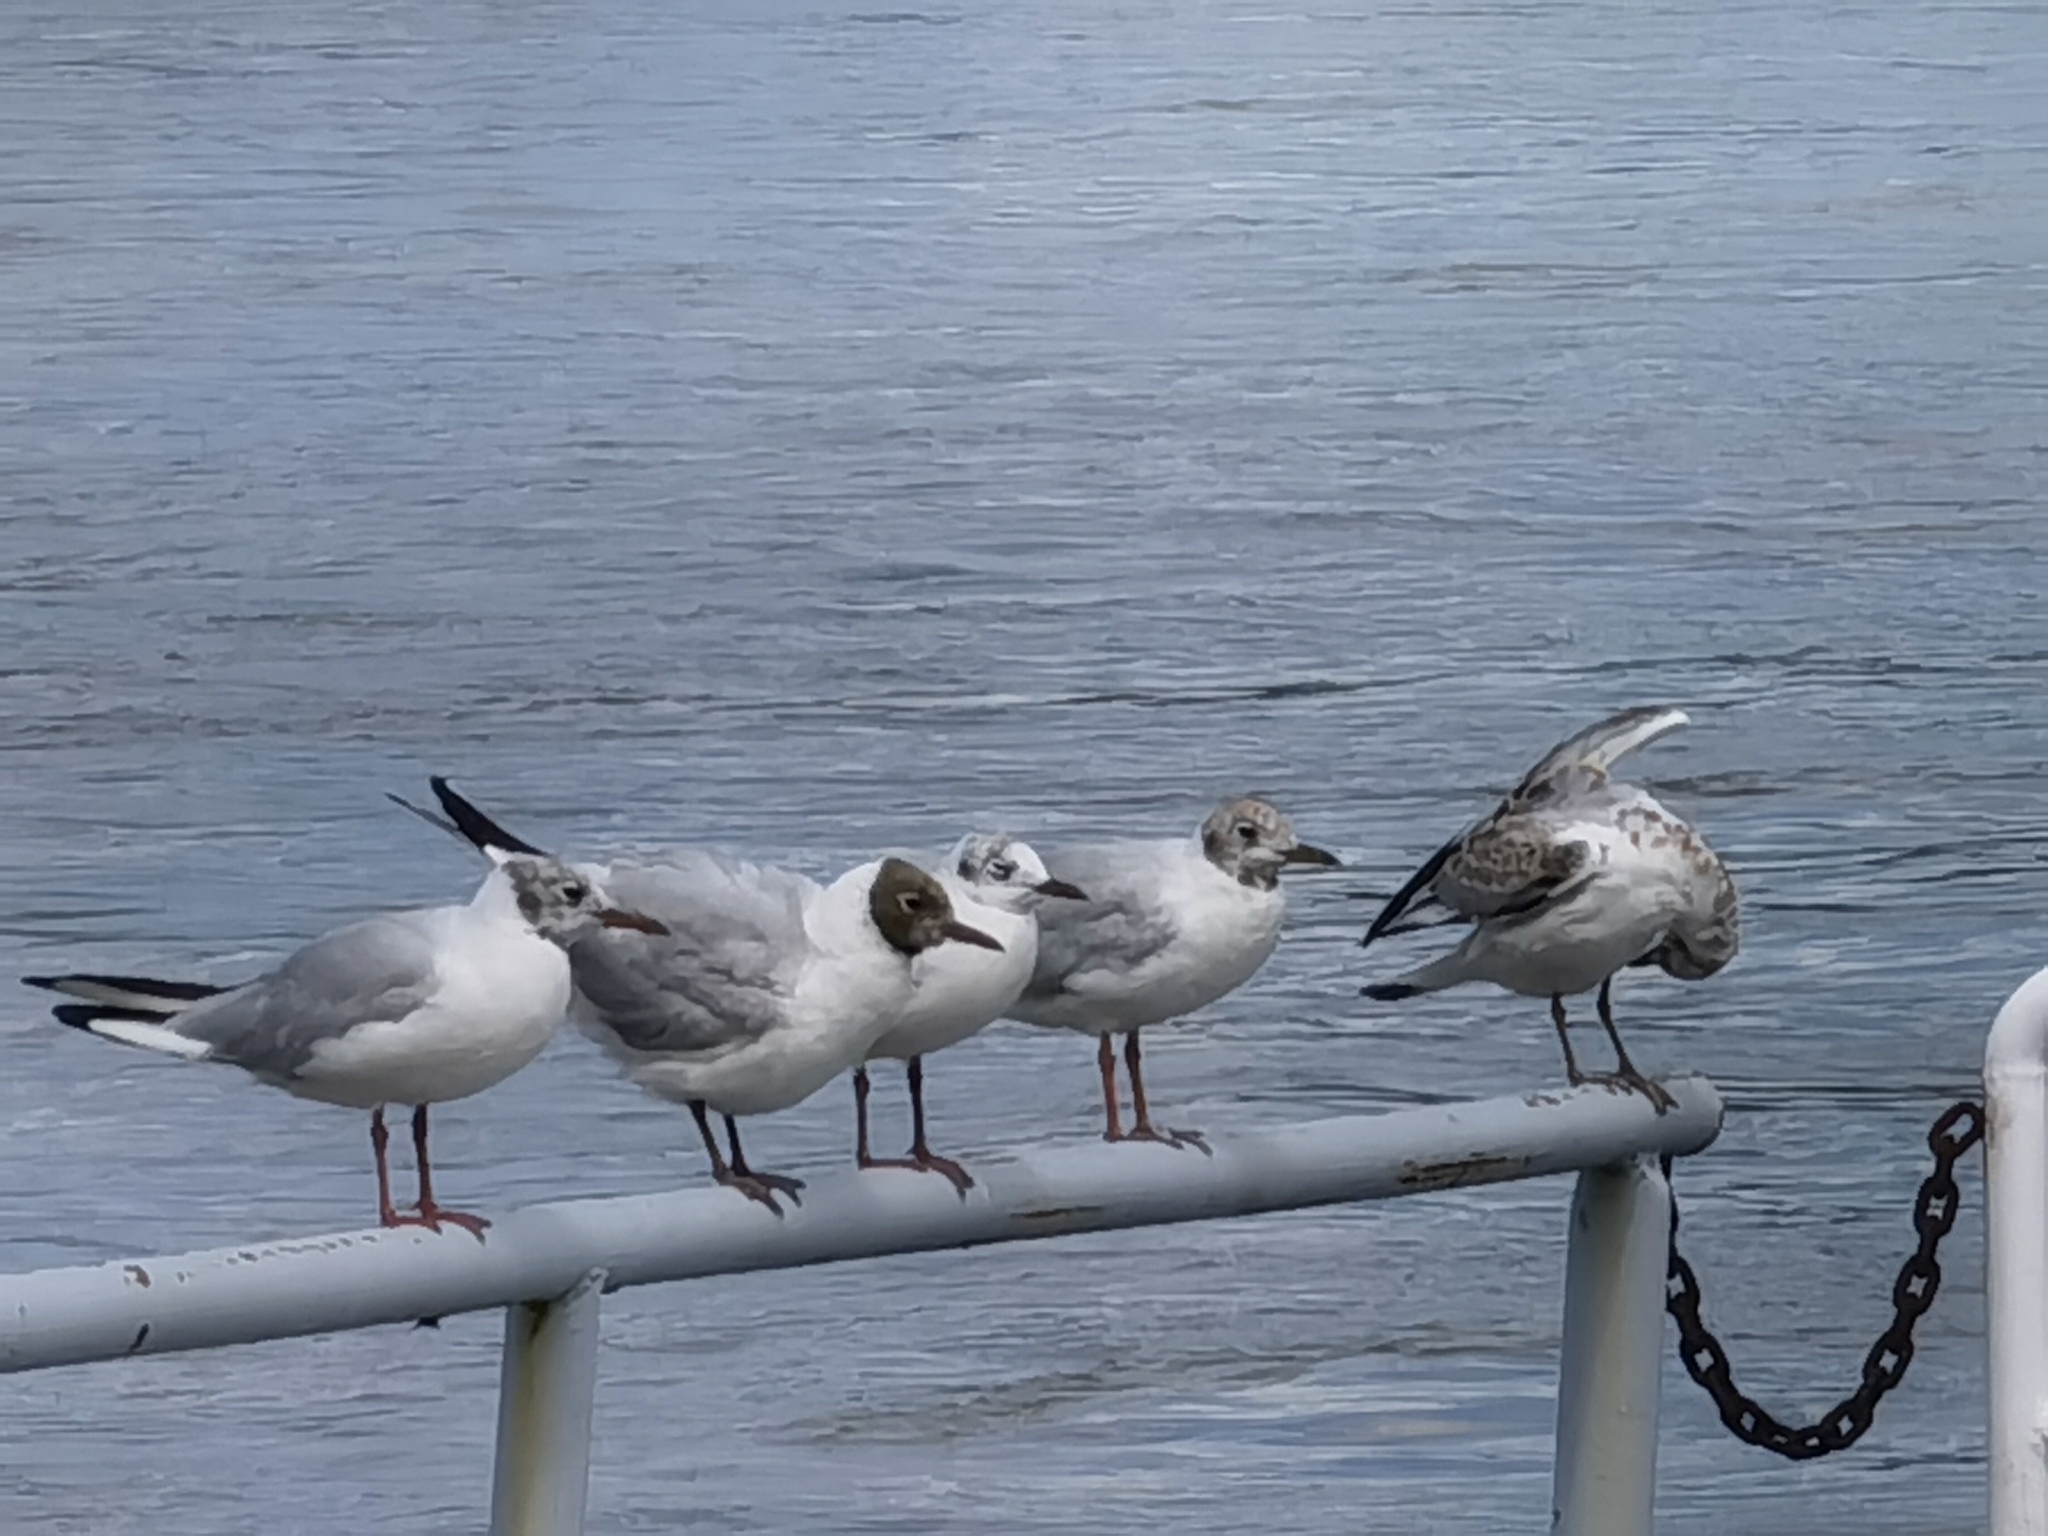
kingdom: Animalia
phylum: Chordata
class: Aves
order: Charadriiformes
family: Laridae
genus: Chroicocephalus
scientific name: Chroicocephalus ridibundus
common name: Black-headed gull
